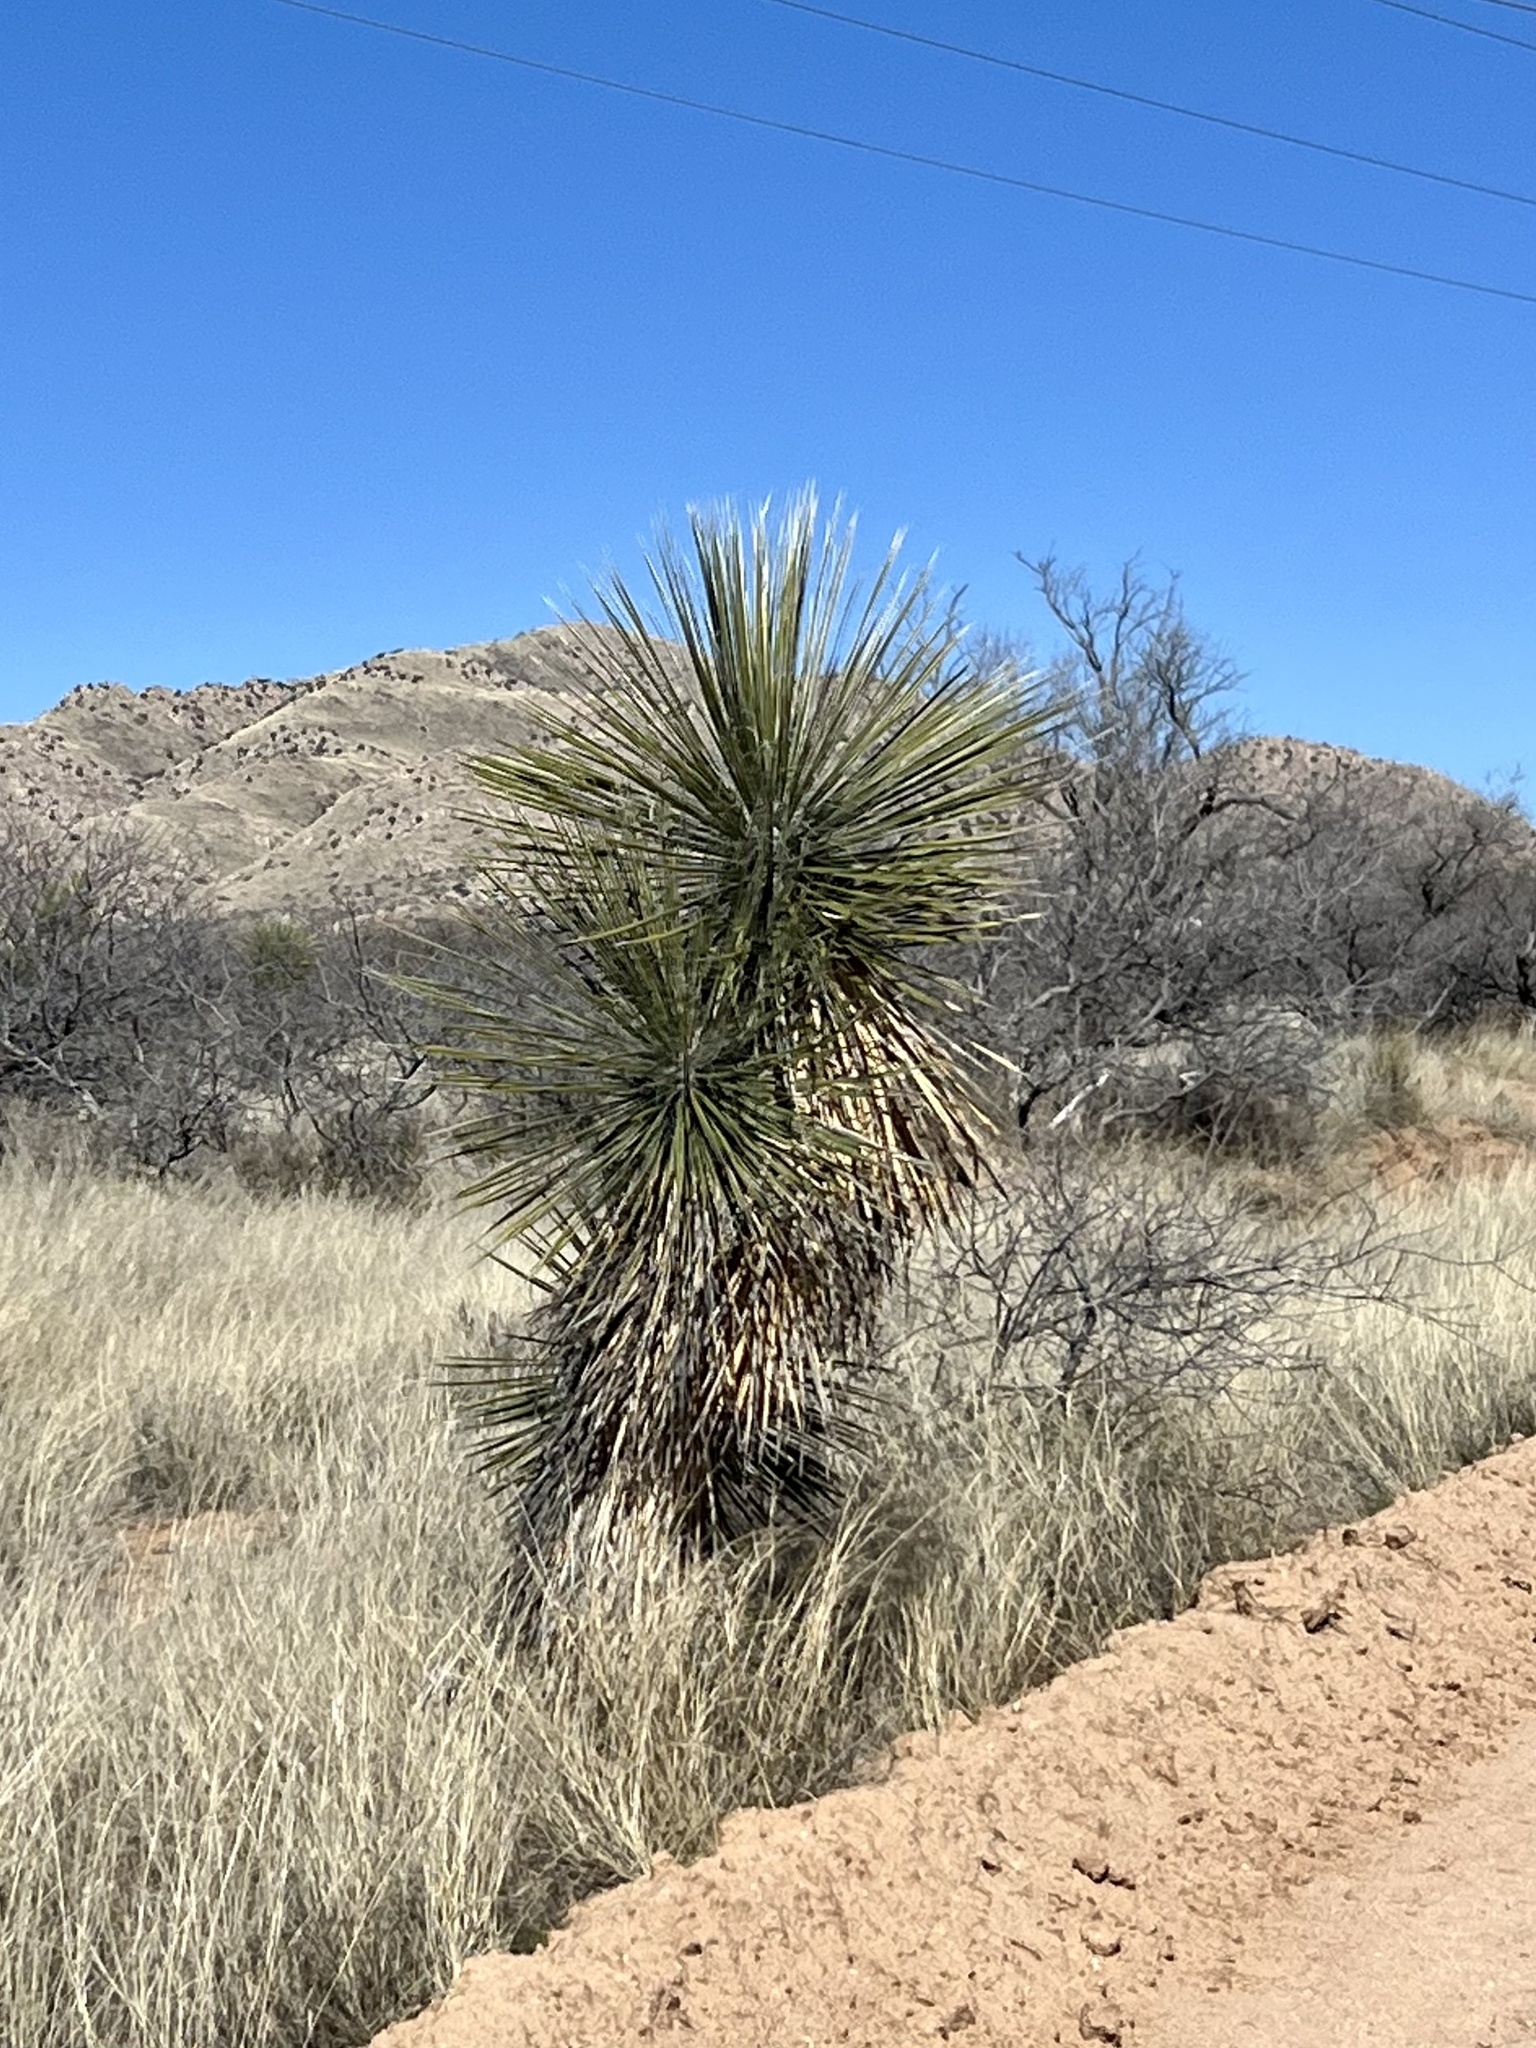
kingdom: Plantae
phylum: Tracheophyta
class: Liliopsida
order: Asparagales
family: Asparagaceae
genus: Yucca
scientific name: Yucca elata
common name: Palmella
